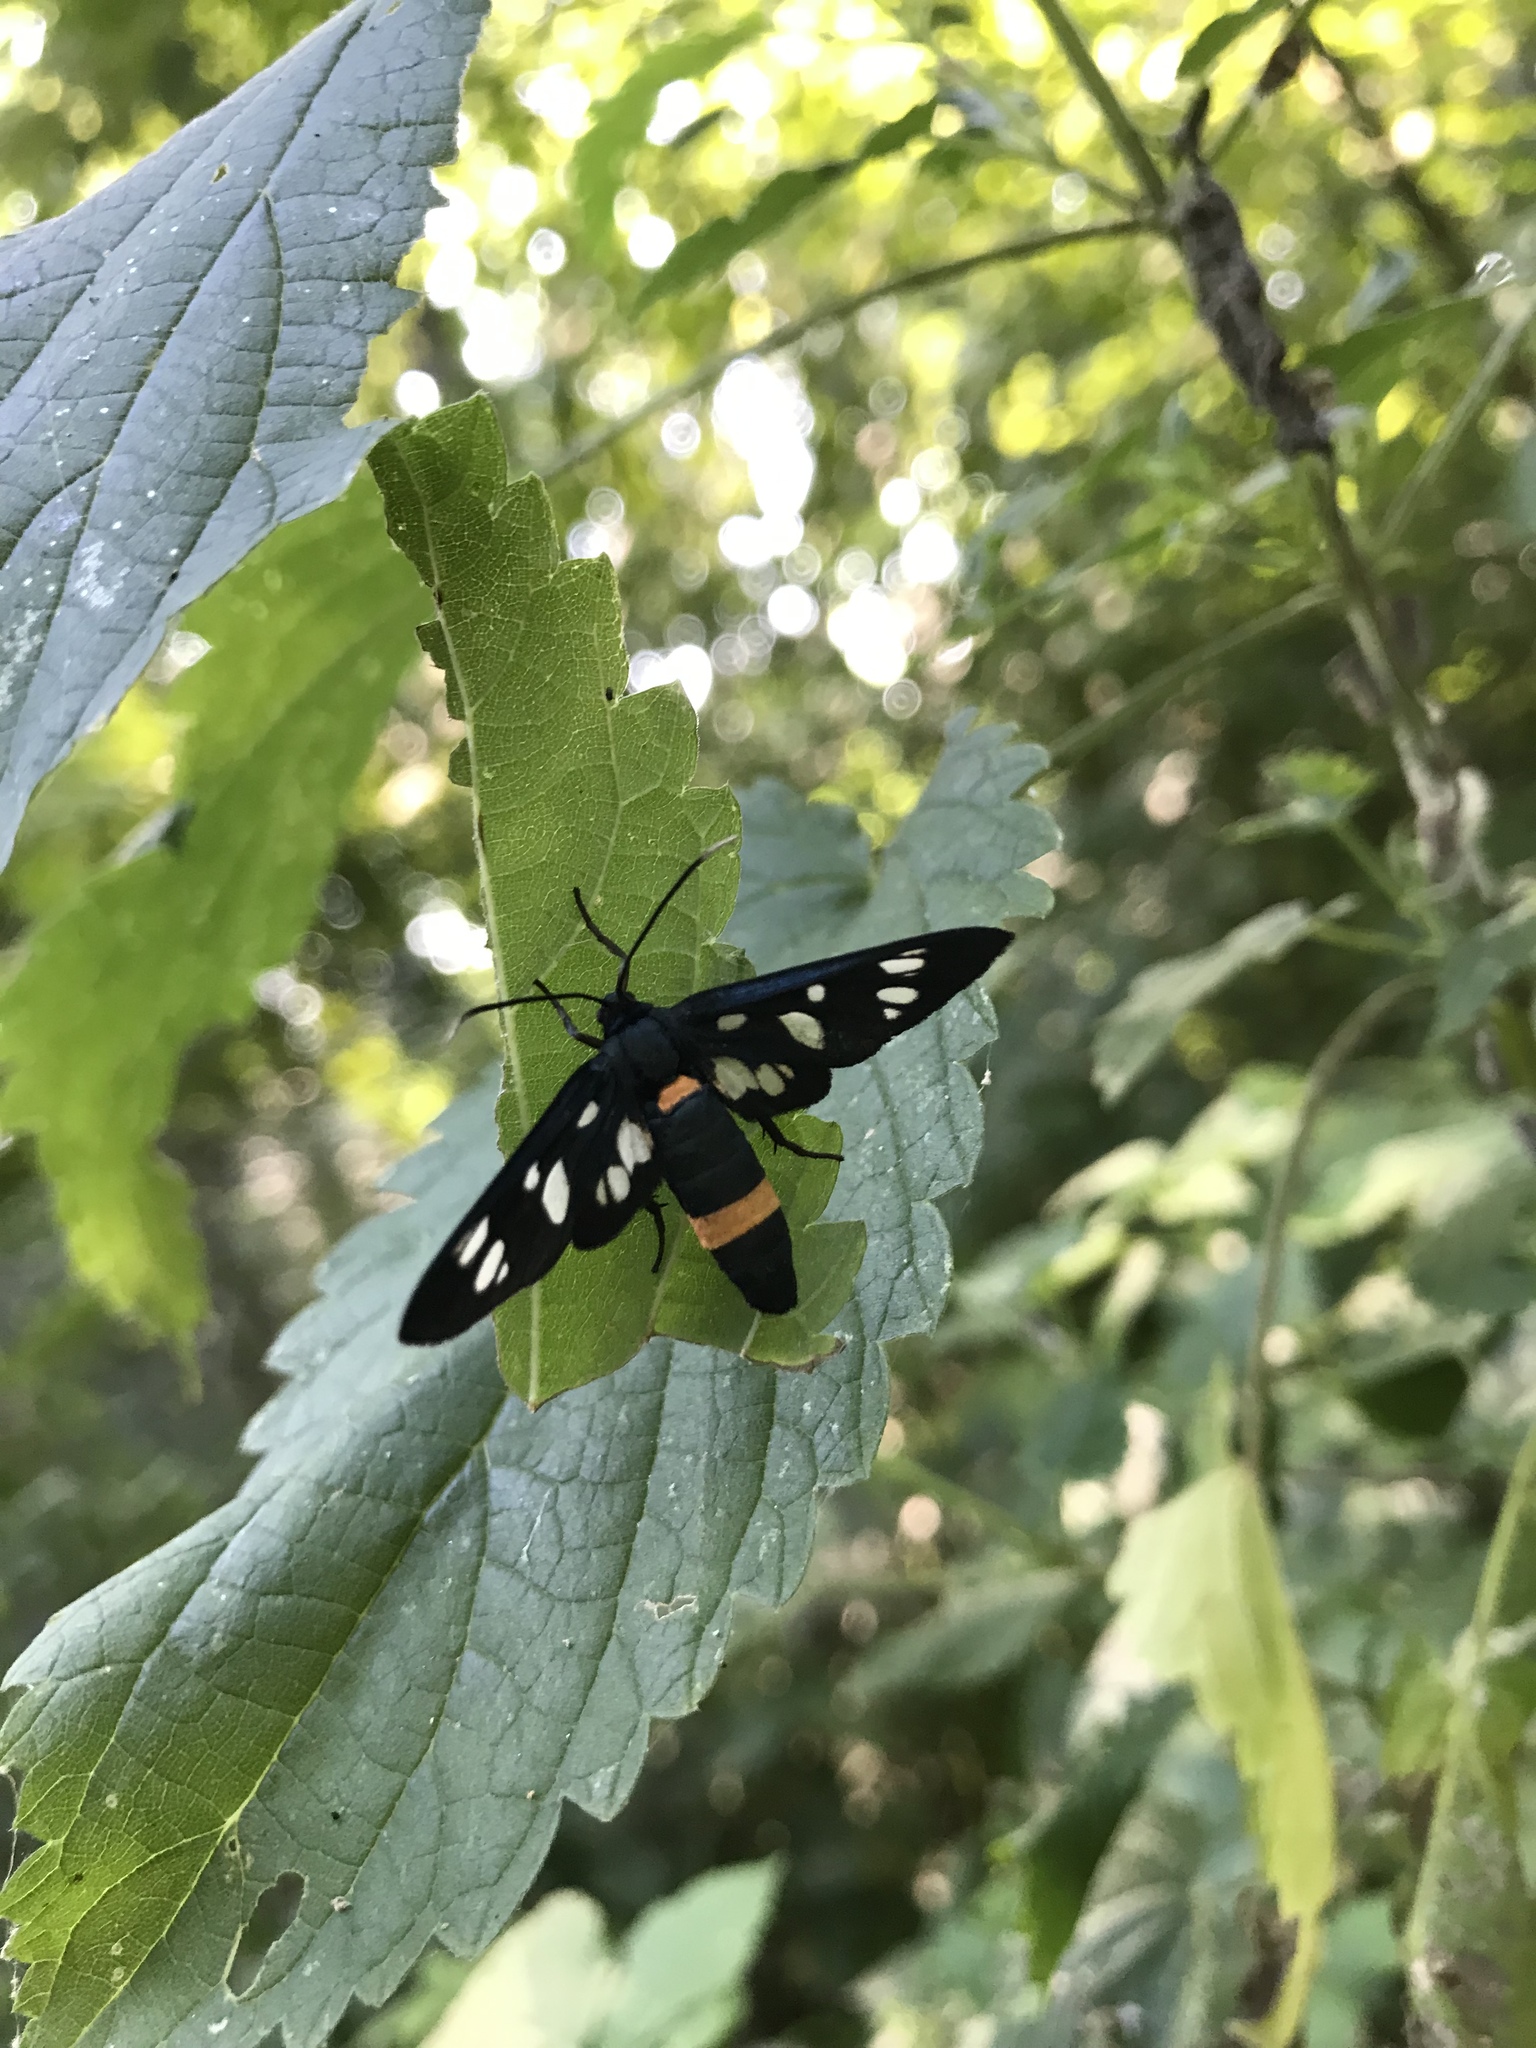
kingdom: Animalia
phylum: Arthropoda
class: Insecta
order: Lepidoptera
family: Erebidae
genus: Amata
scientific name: Amata phegea
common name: Nine-spotted
